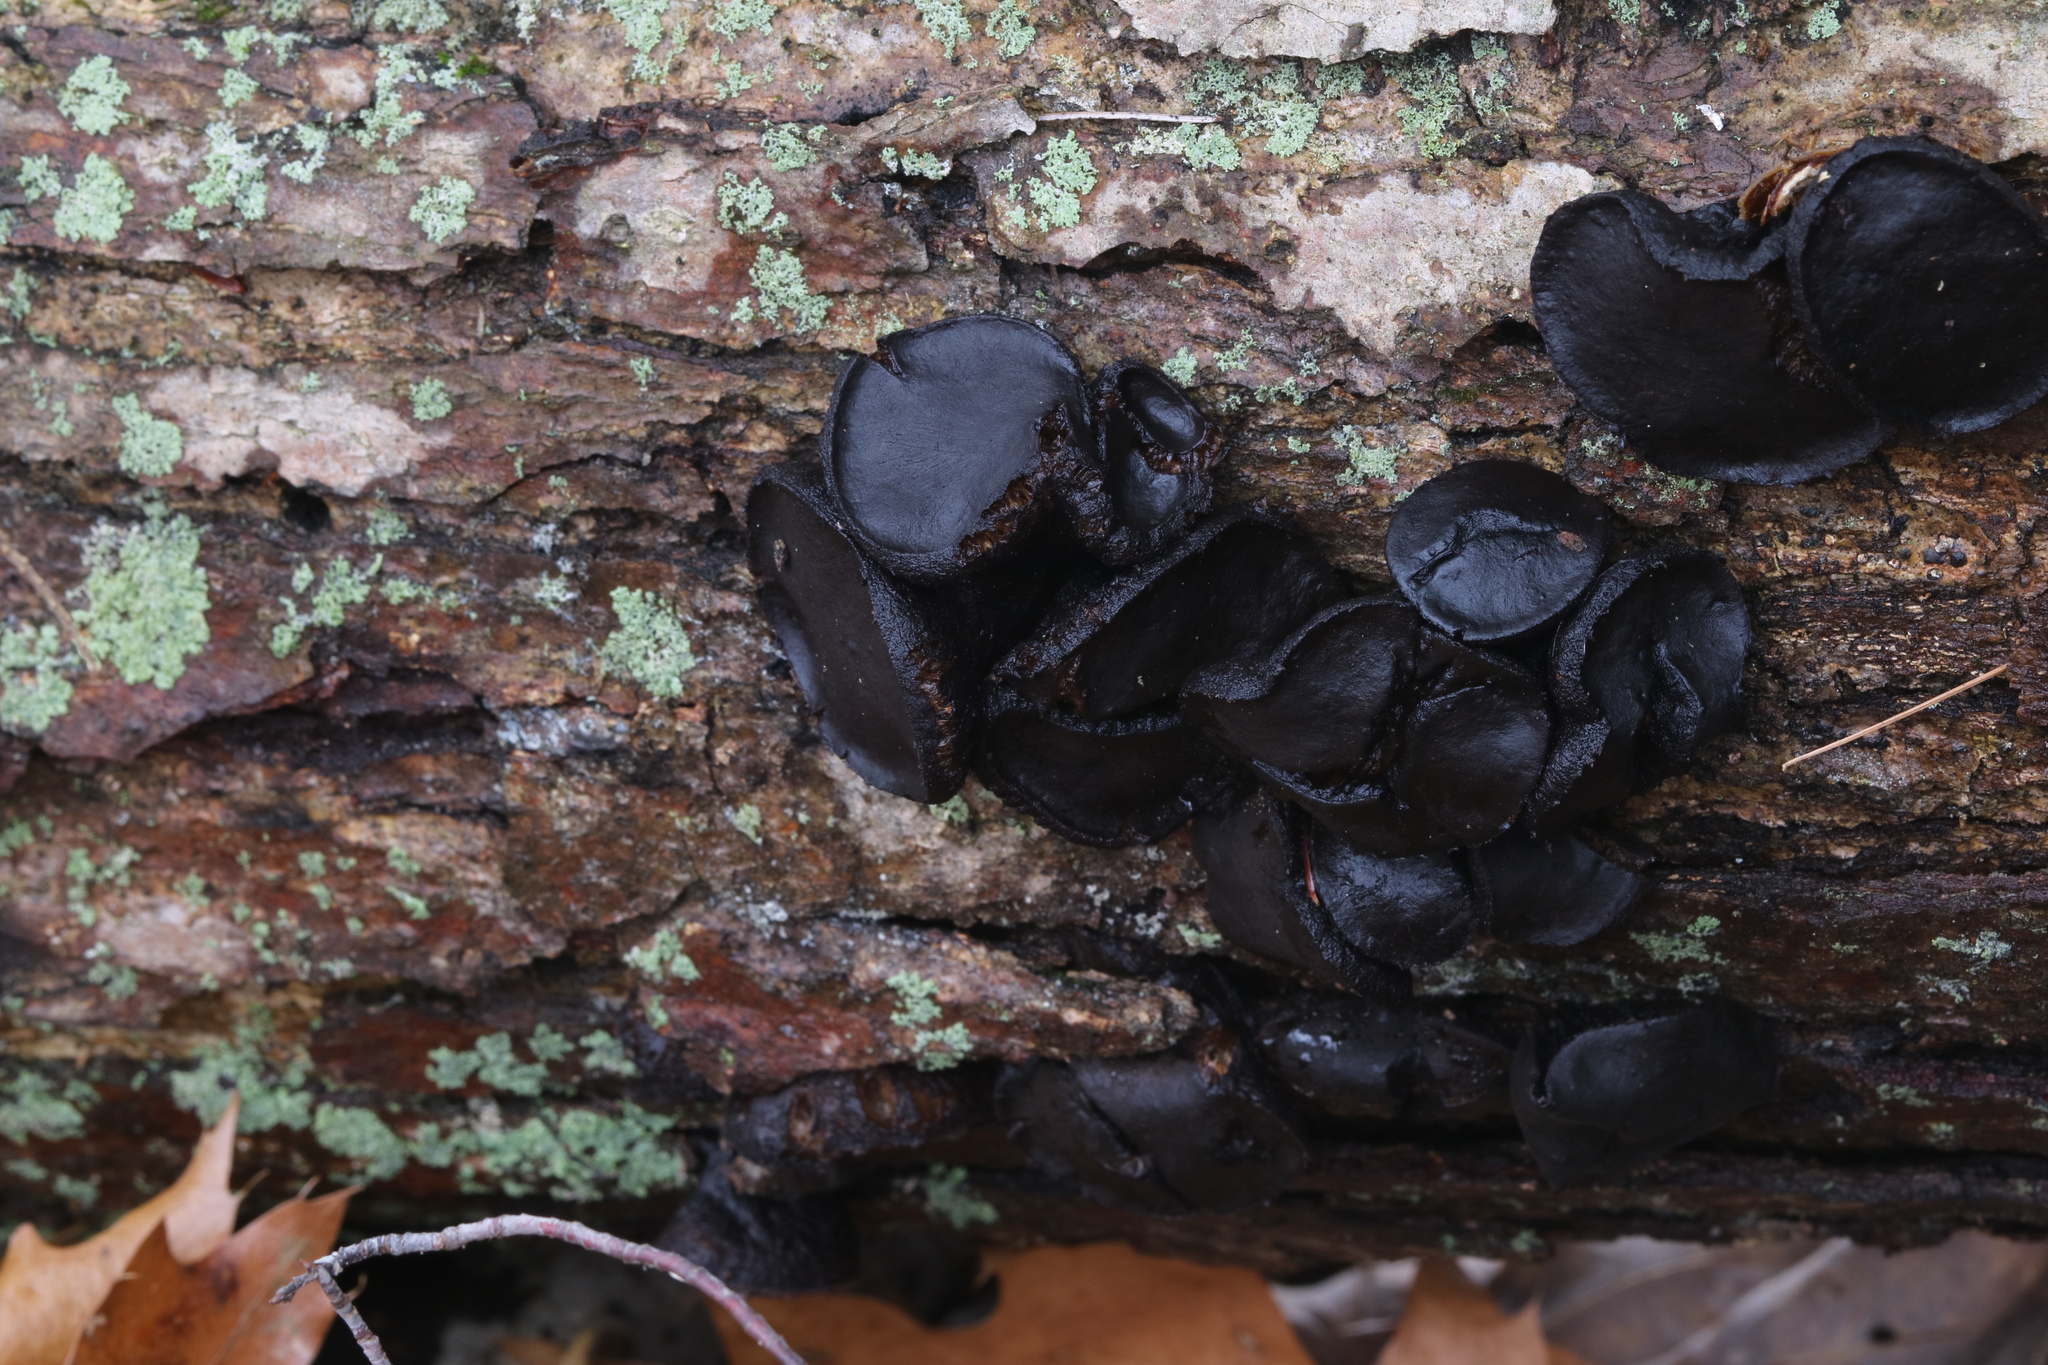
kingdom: Fungi
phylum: Ascomycota
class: Leotiomycetes
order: Phacidiales
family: Phacidiaceae
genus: Bulgaria
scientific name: Bulgaria inquinans
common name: Black bulgar
